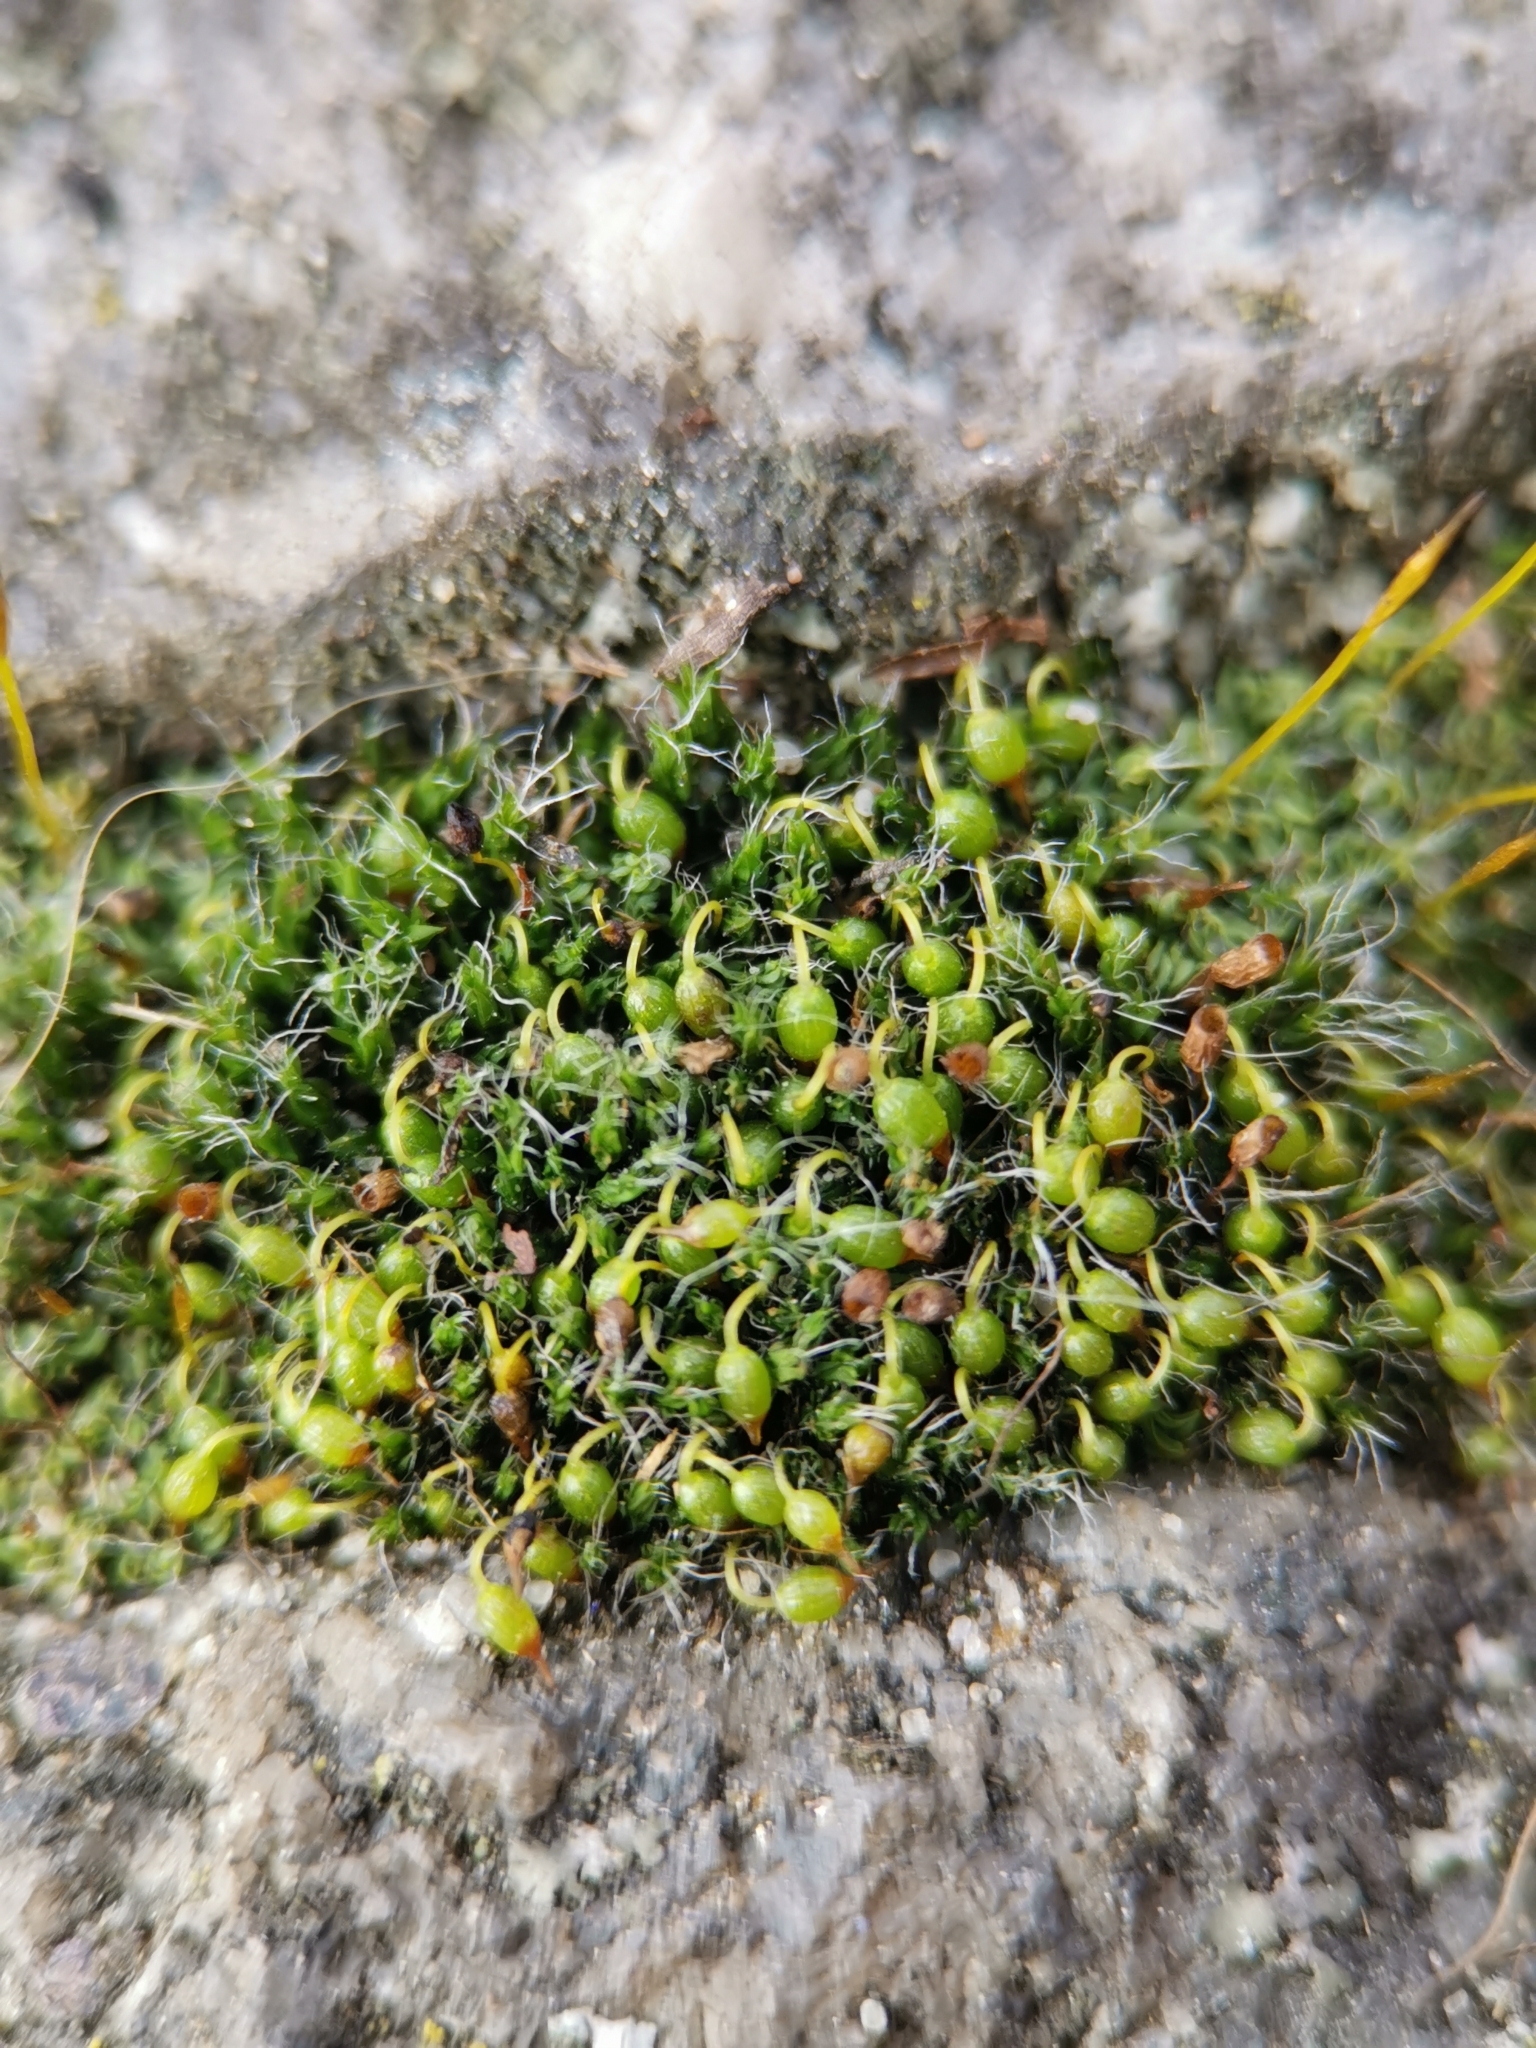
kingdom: Plantae
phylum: Bryophyta
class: Bryopsida
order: Grimmiales
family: Grimmiaceae
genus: Grimmia
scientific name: Grimmia pulvinata
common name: Grey-cushioned grimmia
